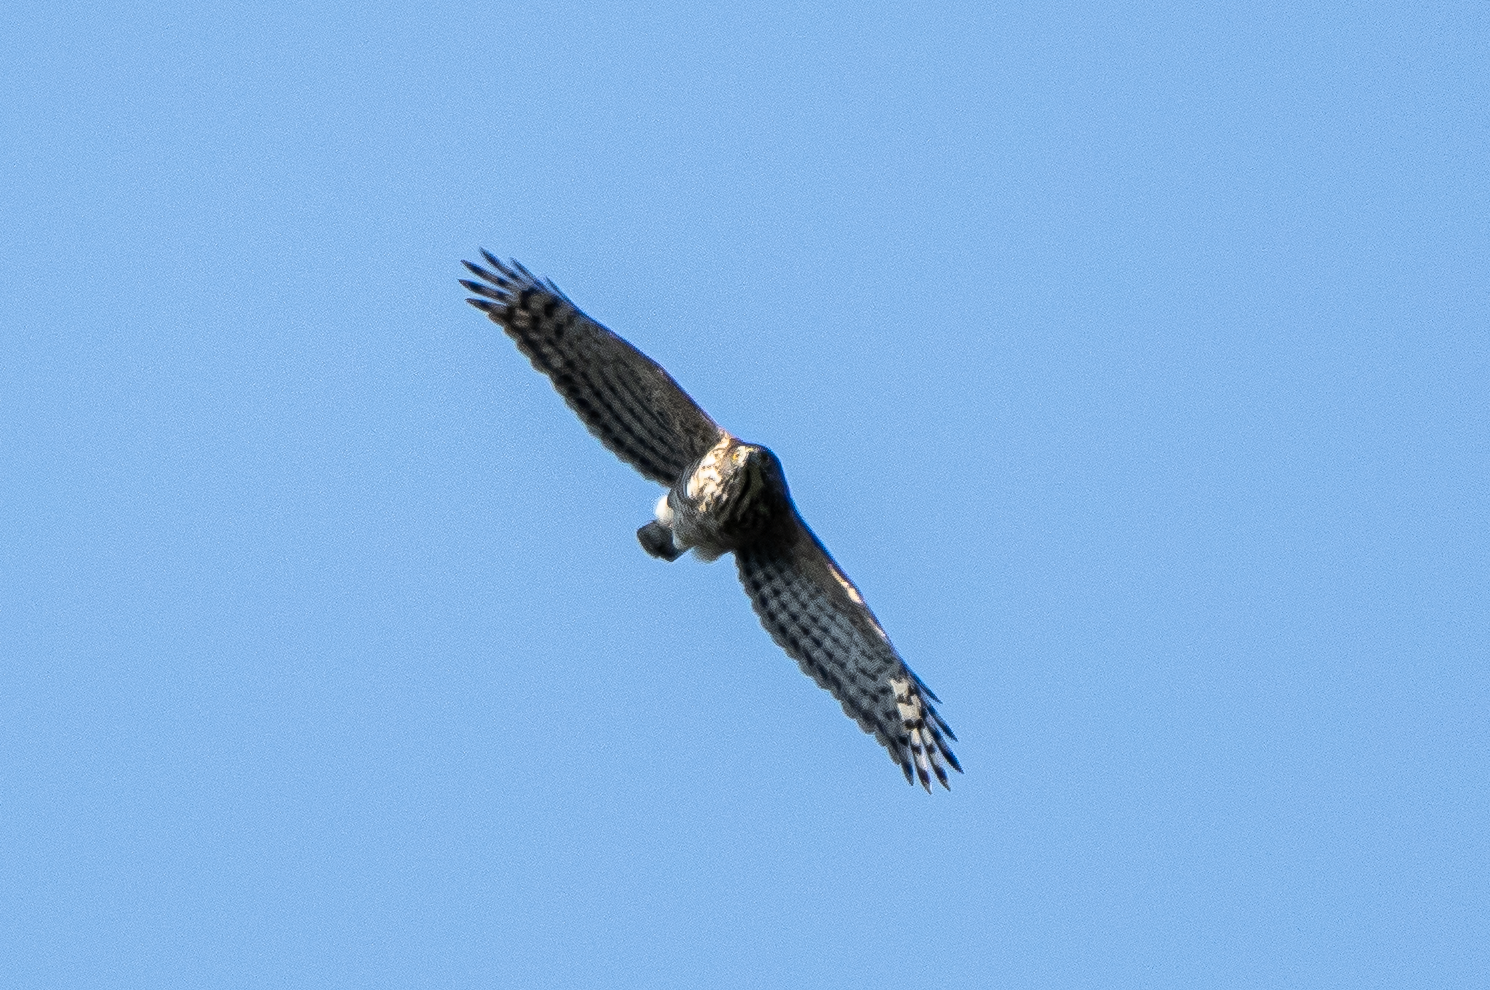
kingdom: Animalia
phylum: Chordata
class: Aves
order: Accipitriformes
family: Accipitridae
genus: Accipiter
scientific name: Accipiter trivirgatus
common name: Crested goshawk
